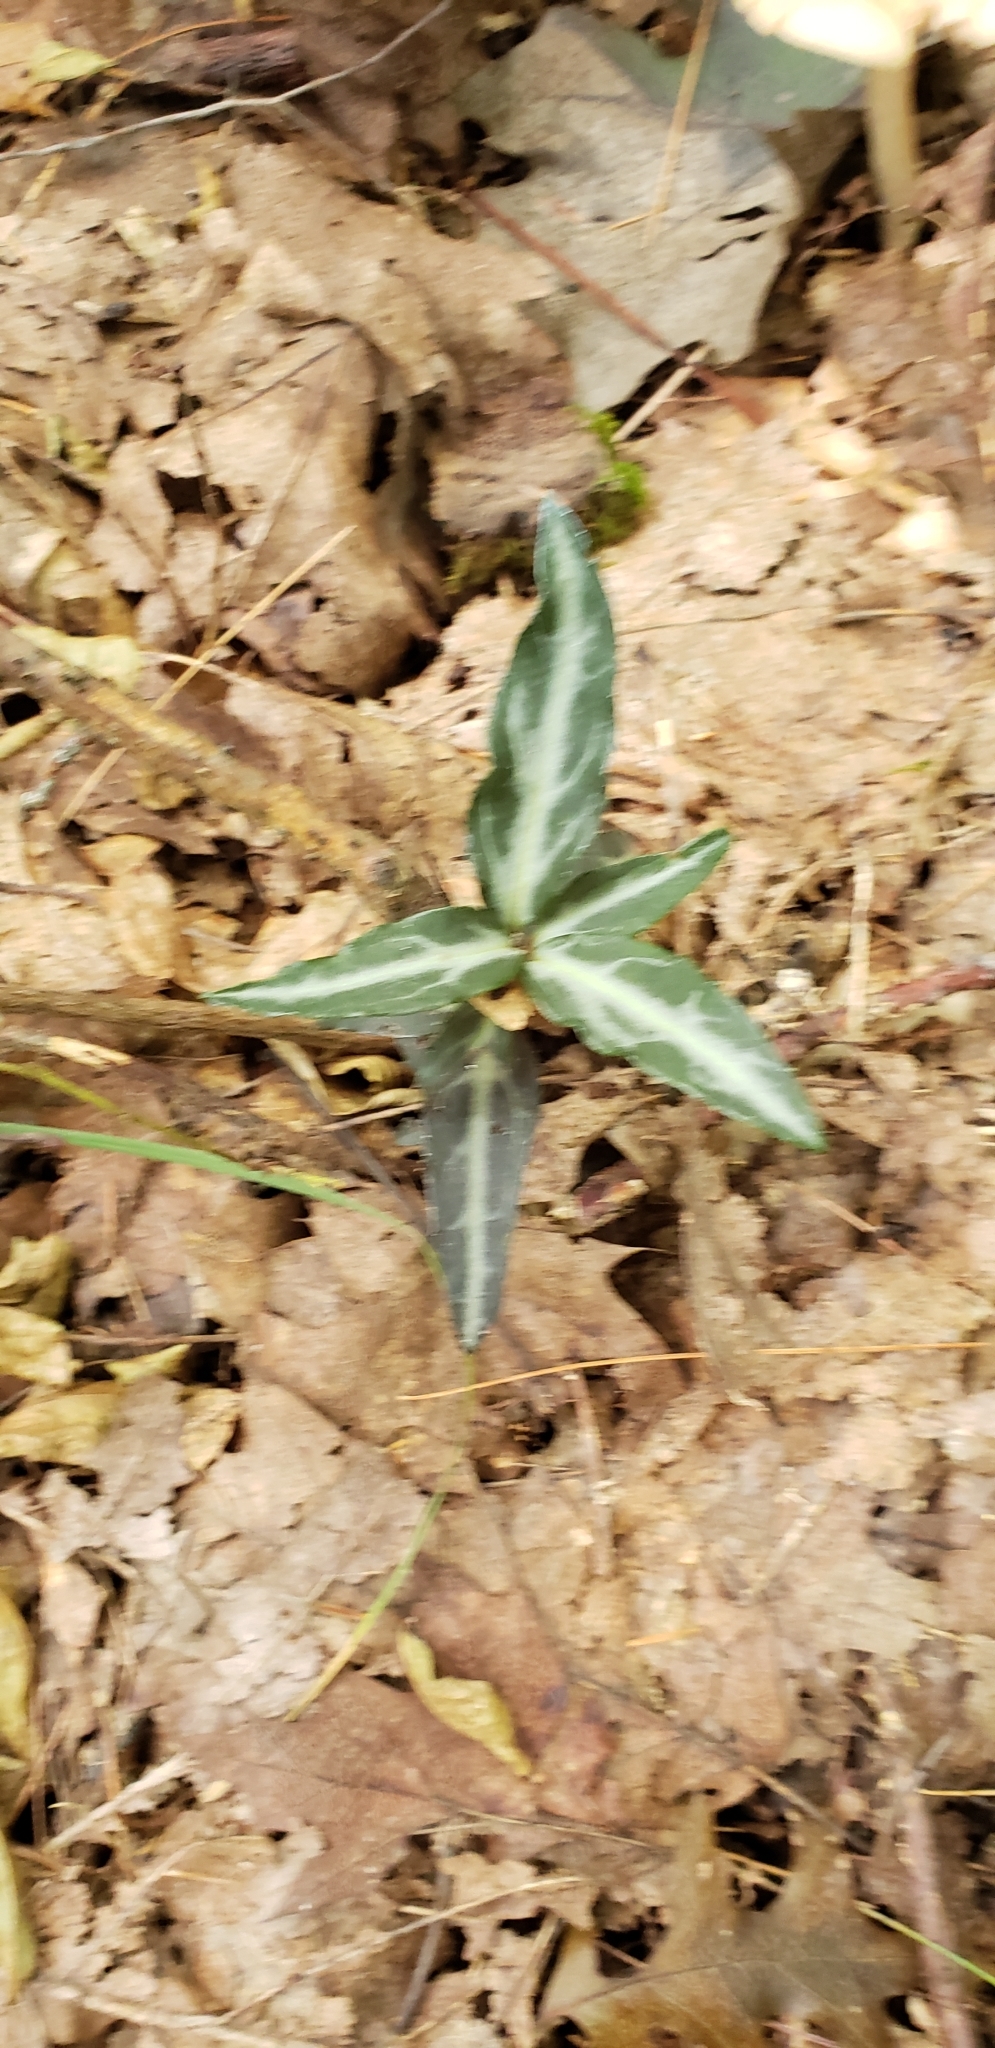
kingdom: Plantae
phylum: Tracheophyta
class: Magnoliopsida
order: Ericales
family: Ericaceae
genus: Chimaphila
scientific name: Chimaphila maculata
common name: Spotted pipsissewa
